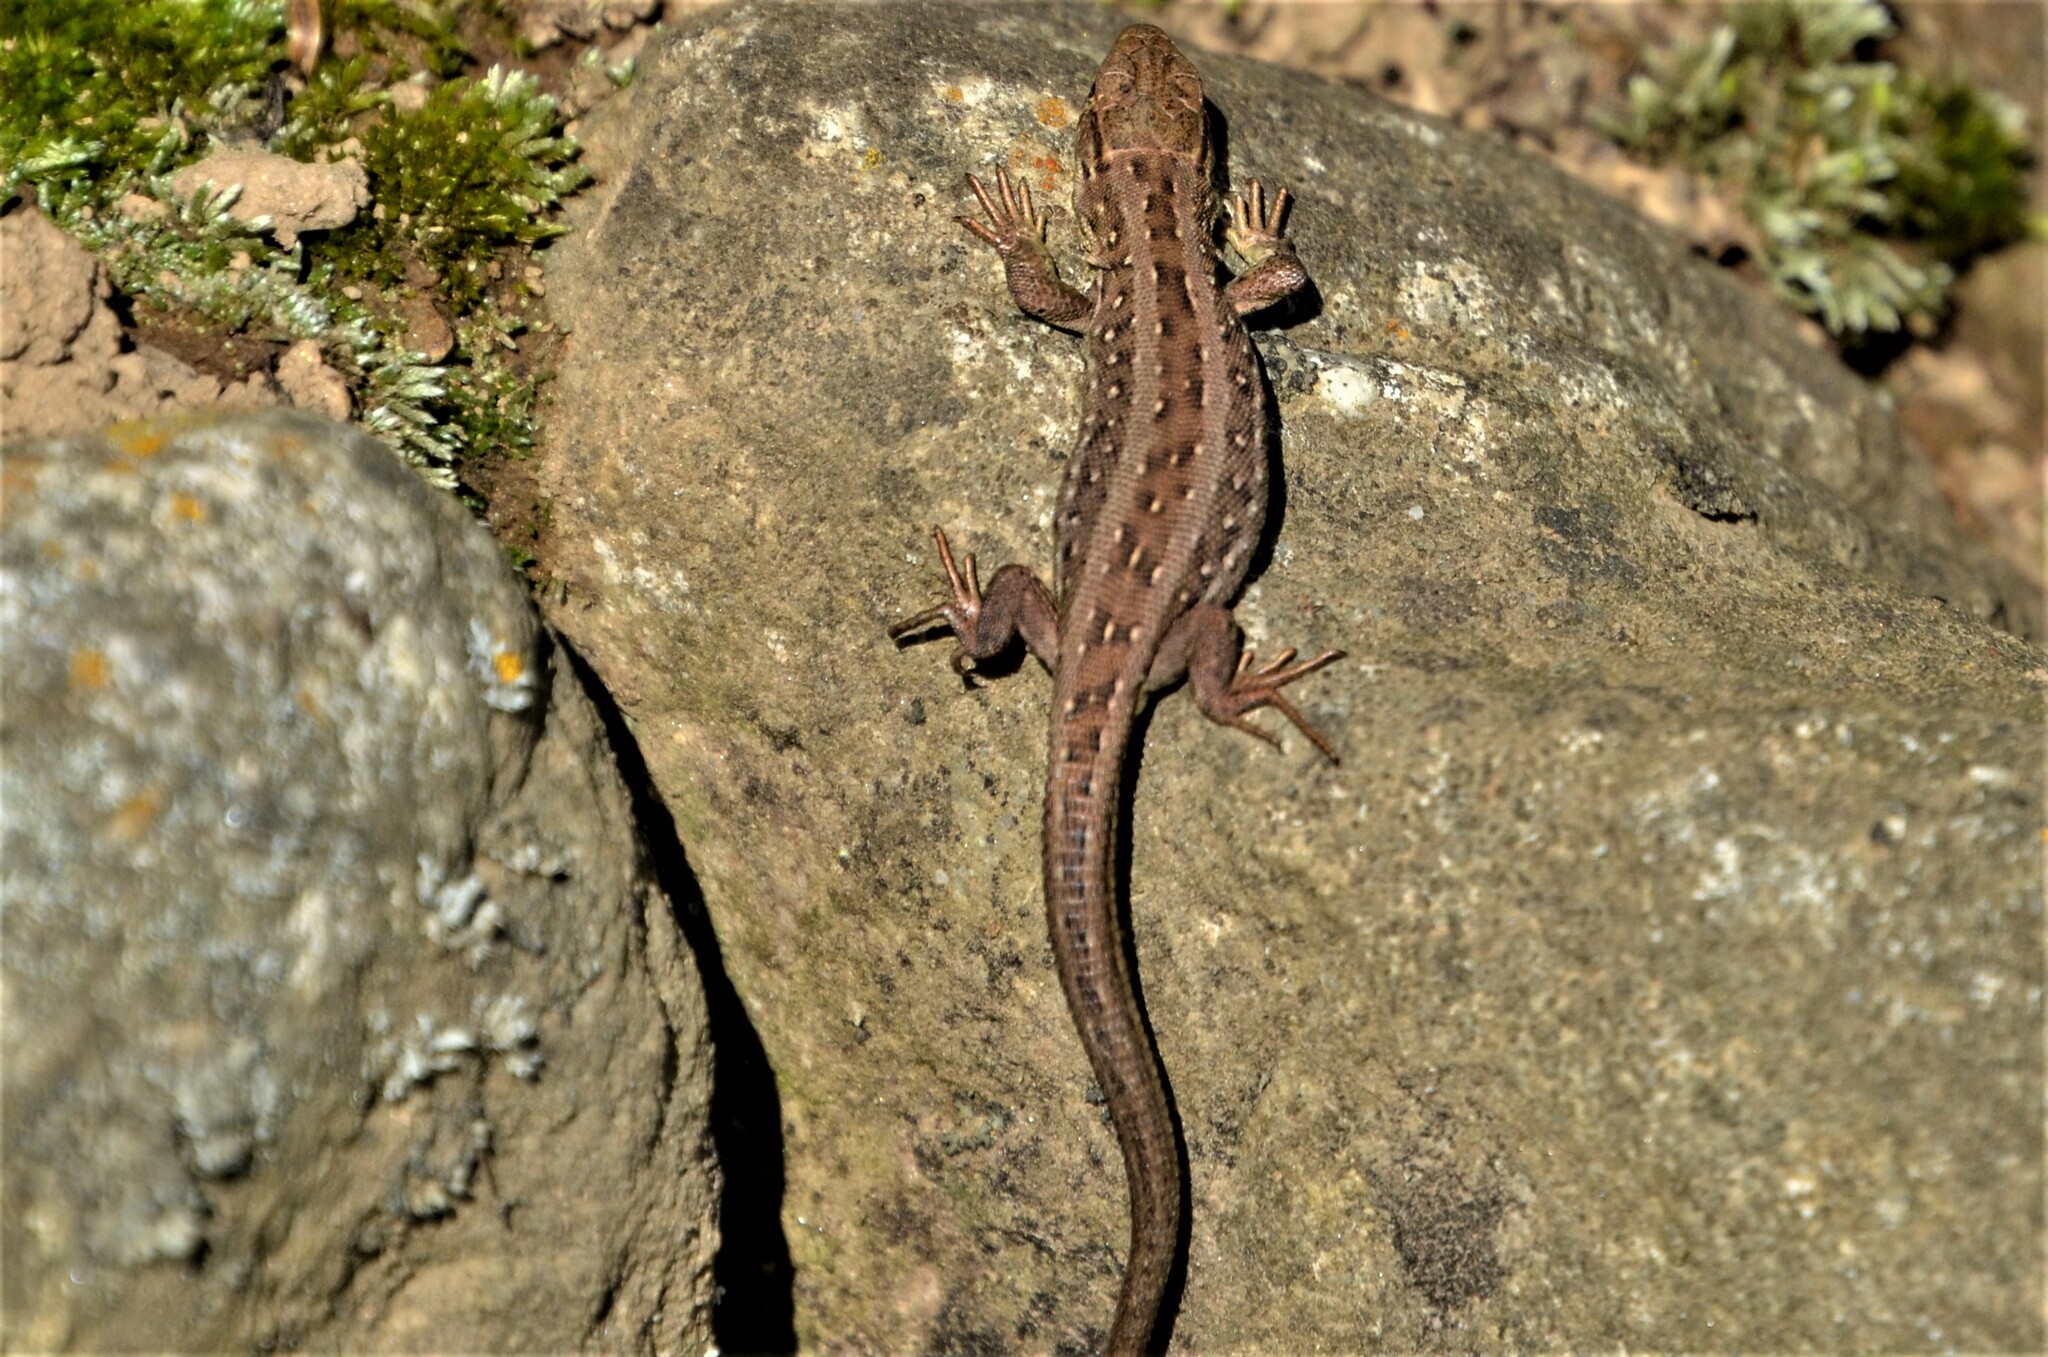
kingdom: Animalia
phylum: Chordata
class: Squamata
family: Lacertidae
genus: Lacerta
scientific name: Lacerta agilis
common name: Sand lizard
